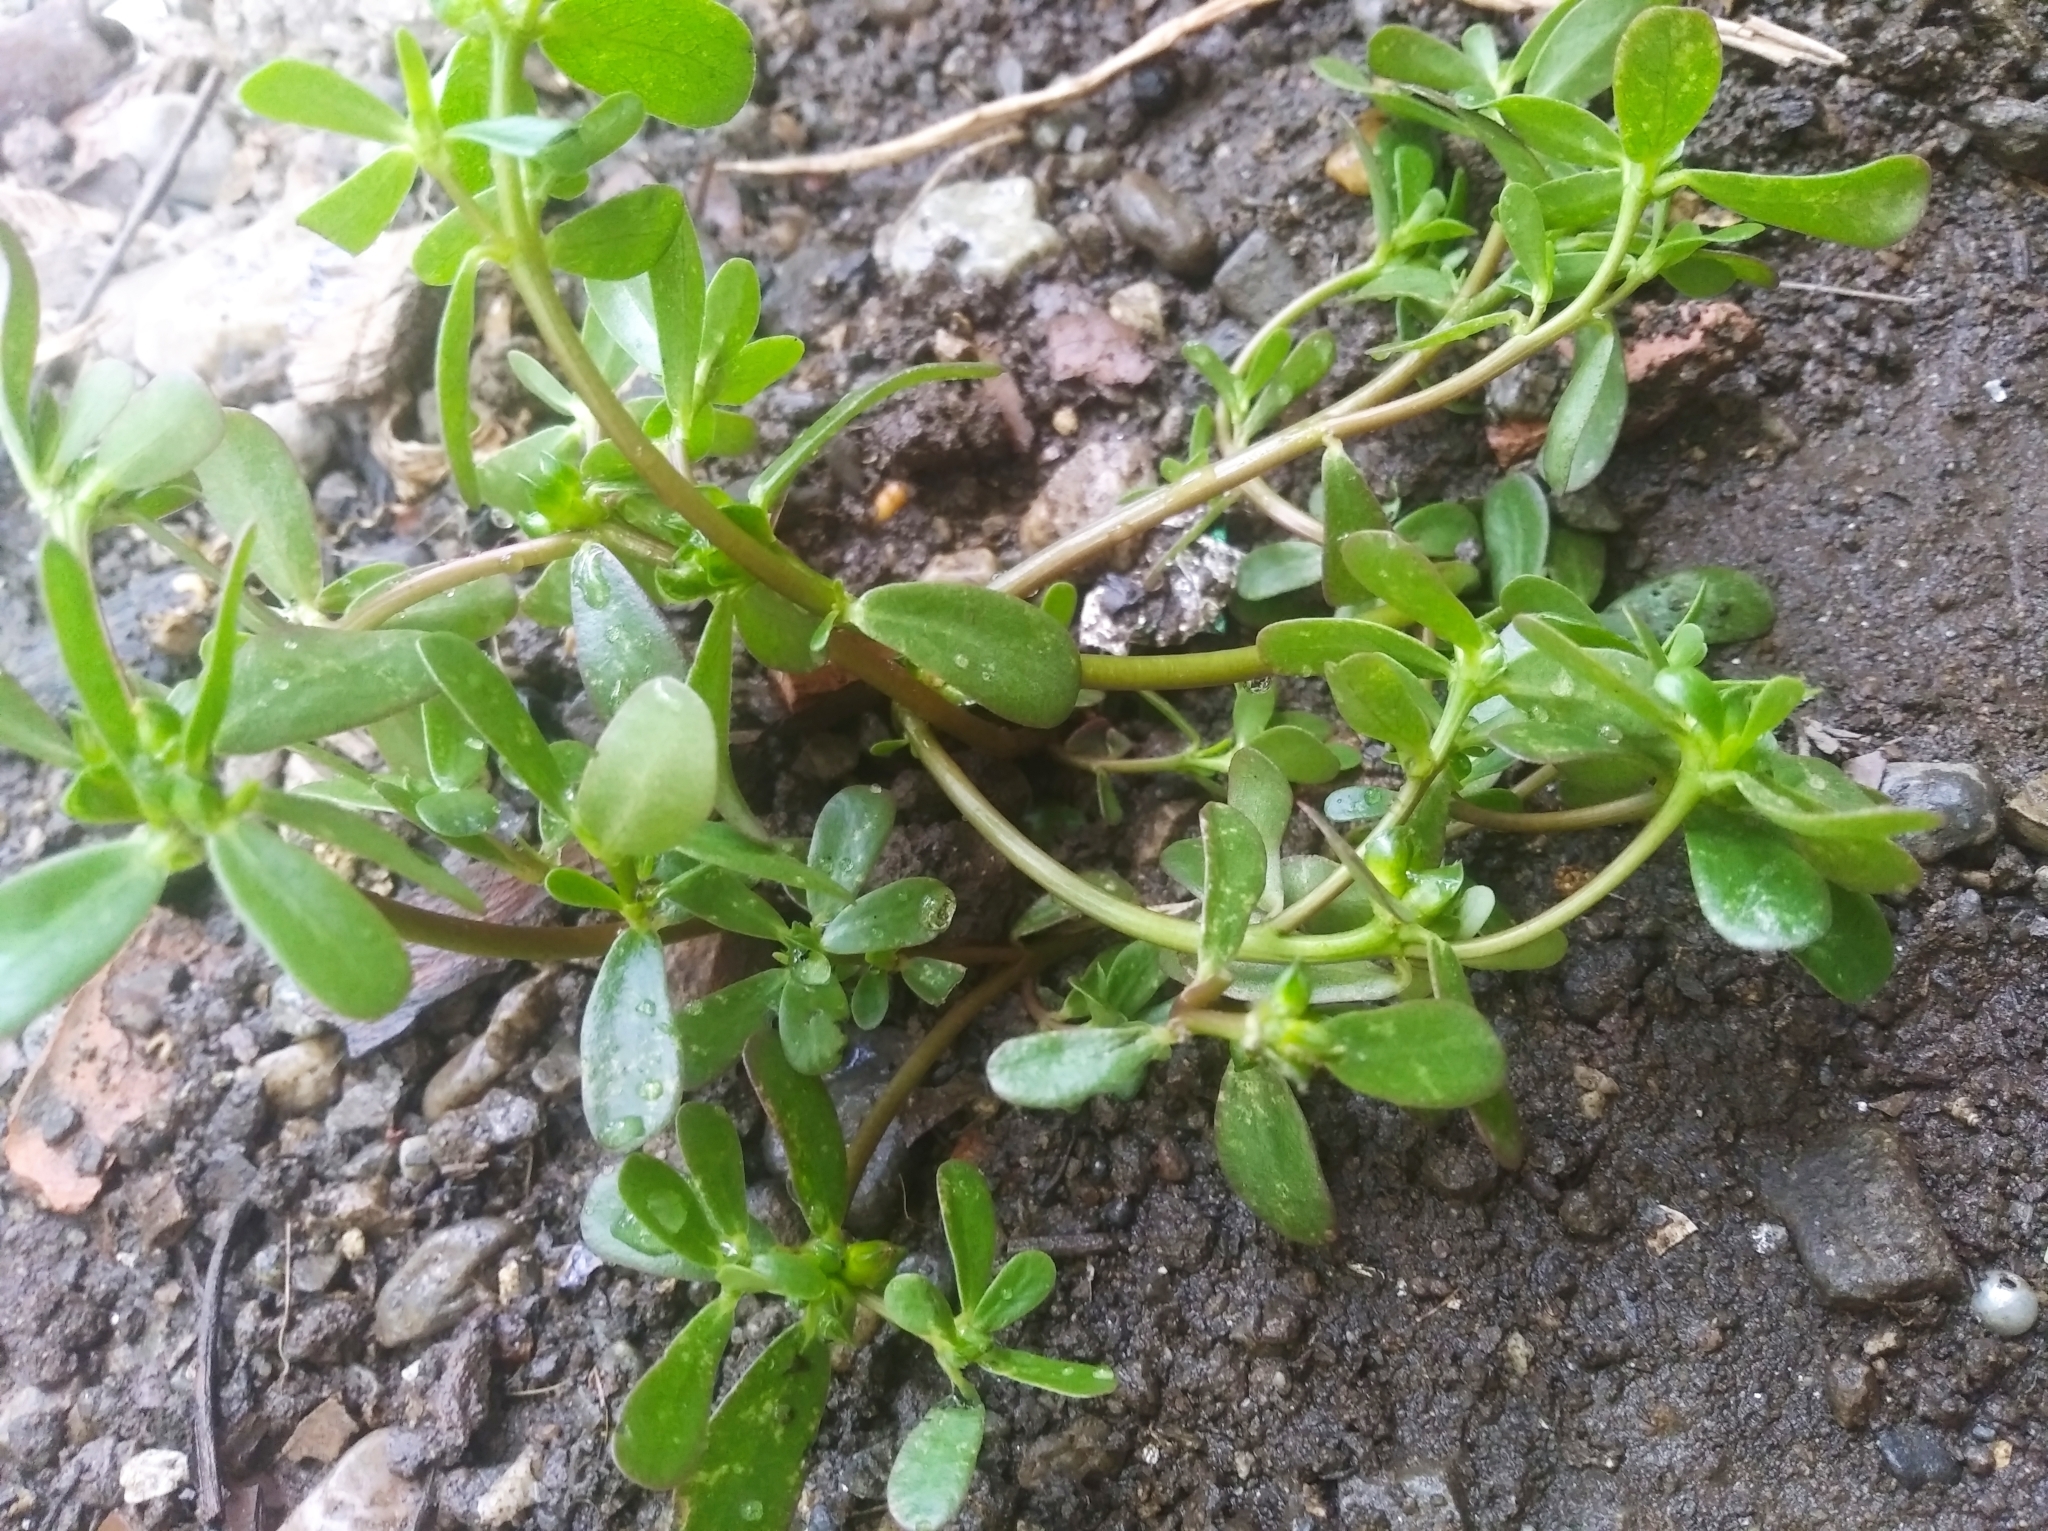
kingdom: Plantae
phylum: Tracheophyta
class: Magnoliopsida
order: Caryophyllales
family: Portulacaceae
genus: Portulaca
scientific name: Portulaca oleracea
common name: Common purslane
